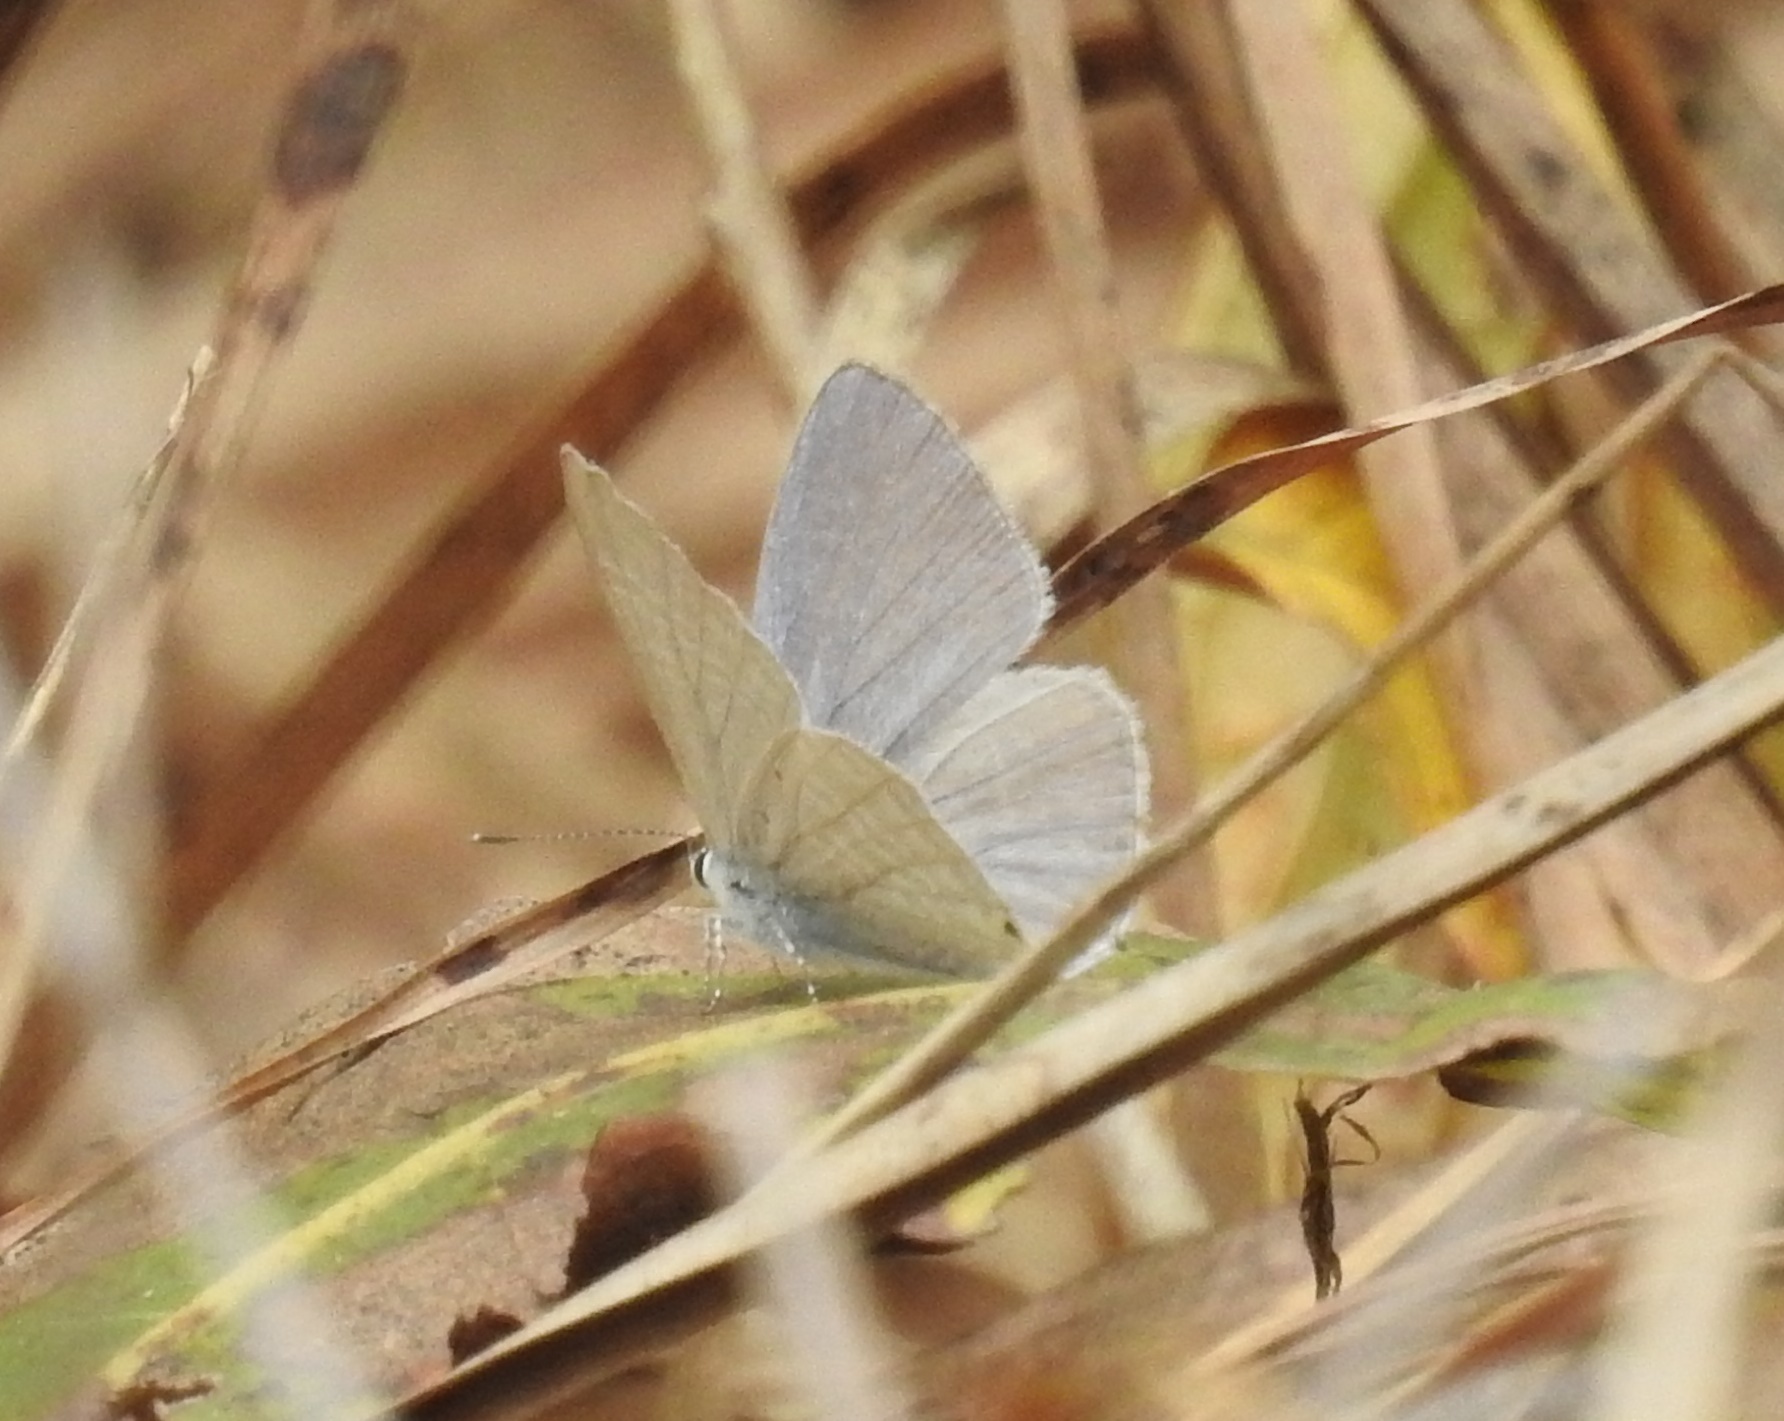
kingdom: Animalia
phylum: Arthropoda
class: Insecta
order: Lepidoptera
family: Lycaenidae
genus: Catochrysops
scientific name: Catochrysops strabo
